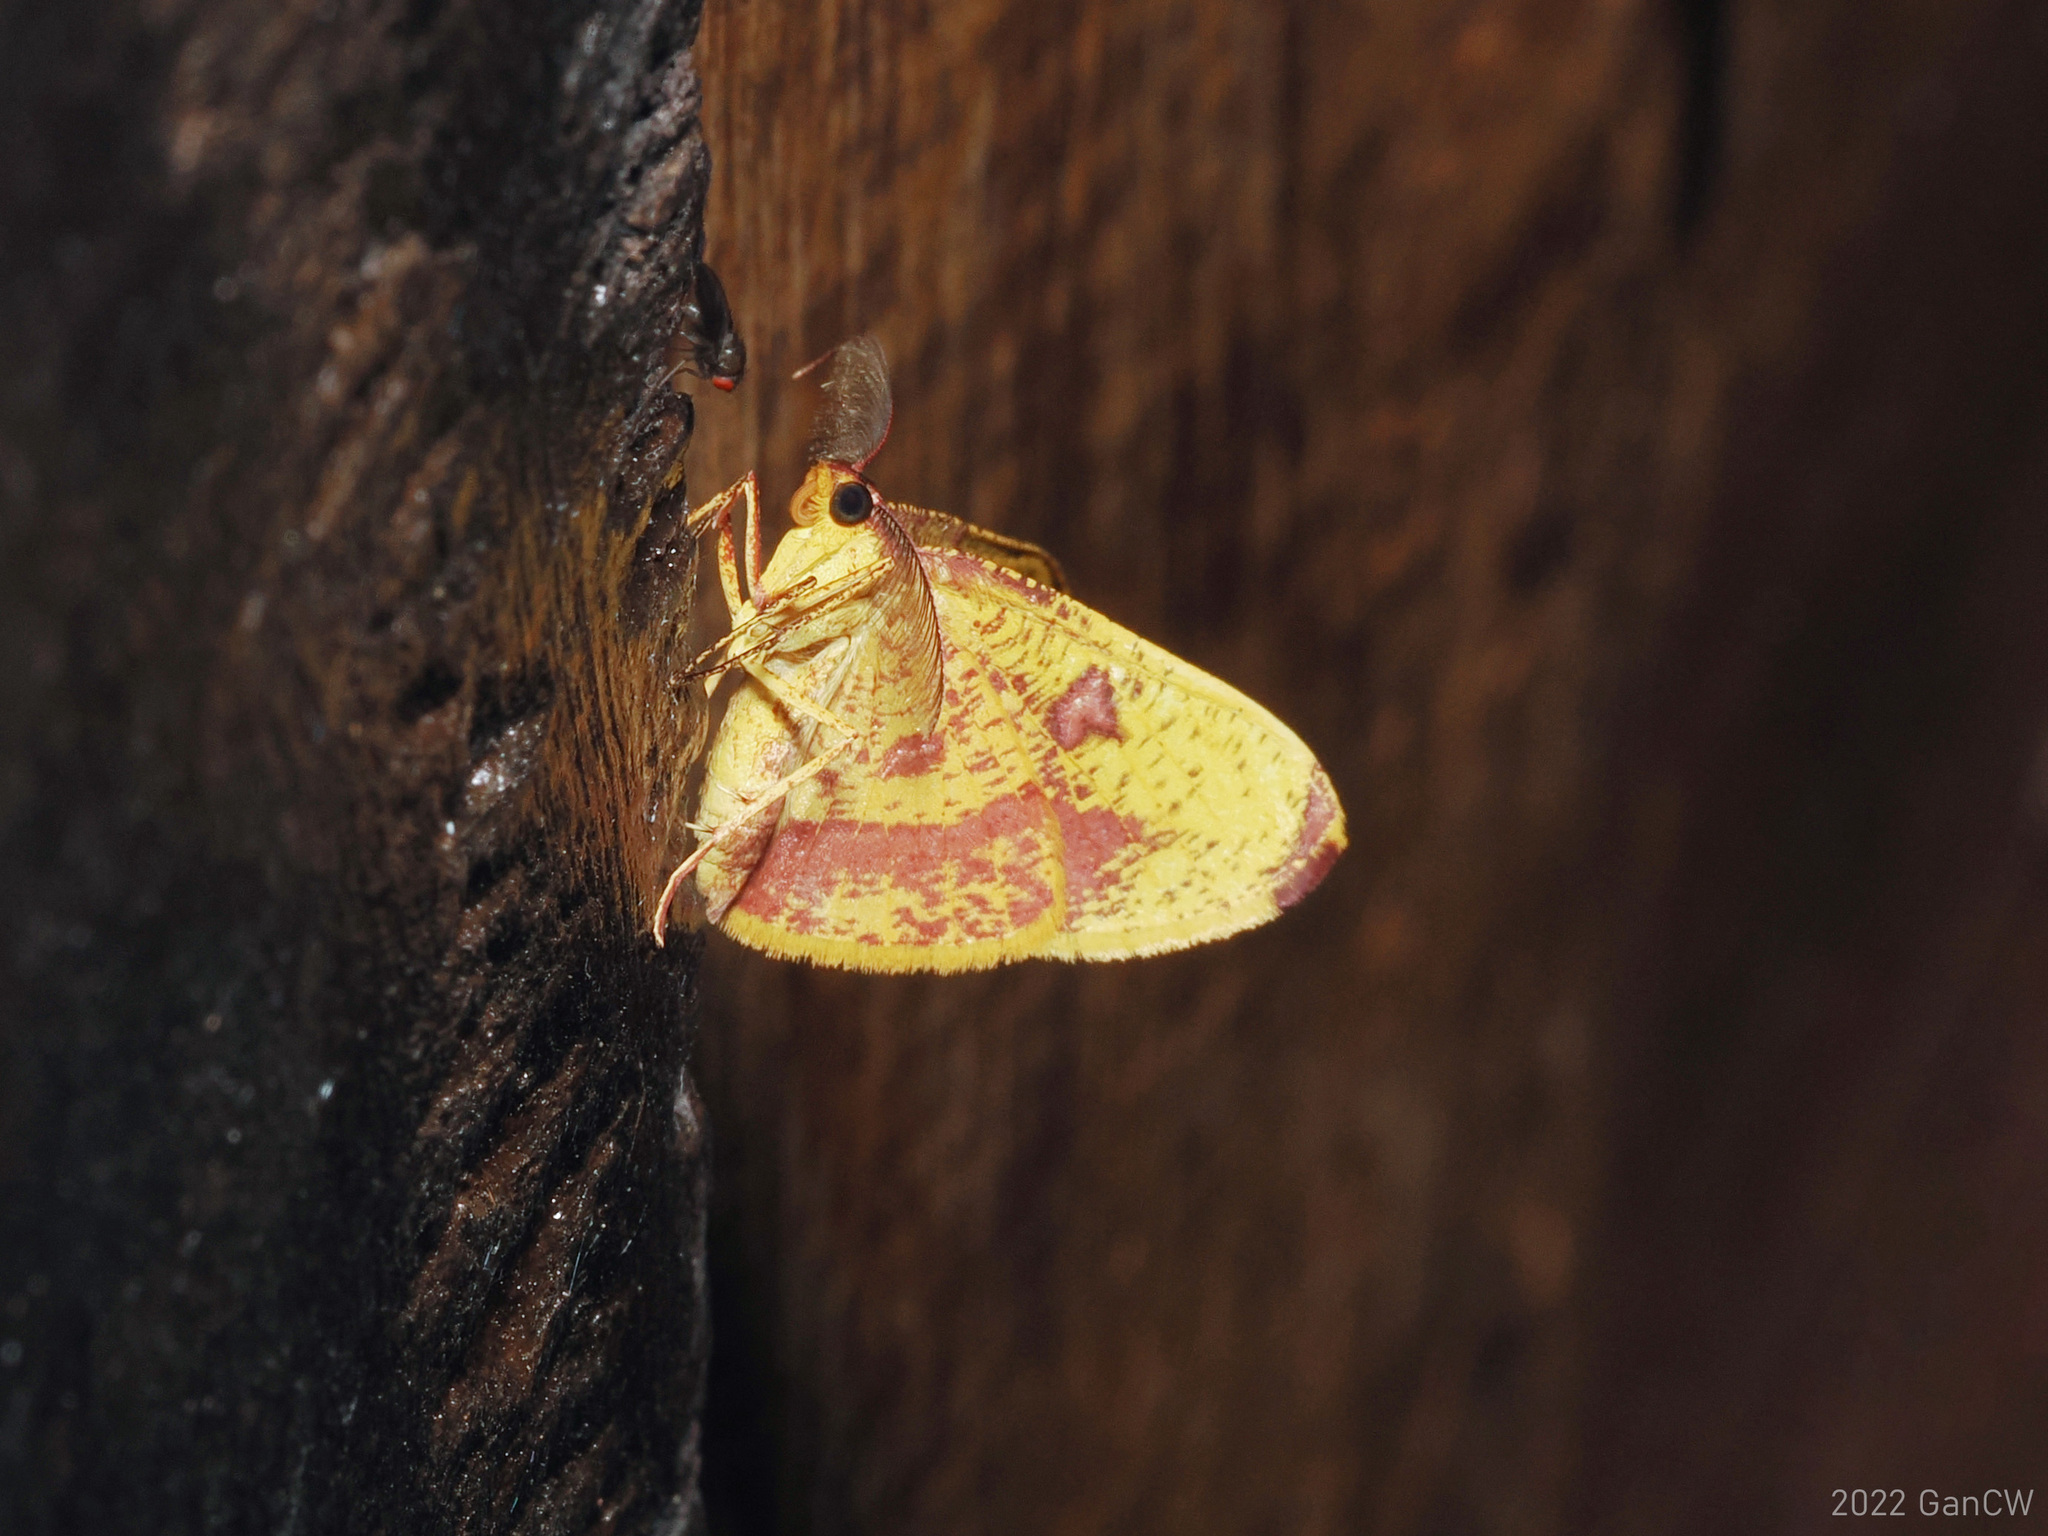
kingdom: Animalia
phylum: Arthropoda
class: Insecta
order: Lepidoptera
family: Geometridae
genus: Heterolocha
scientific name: Heterolocha pyreniata
